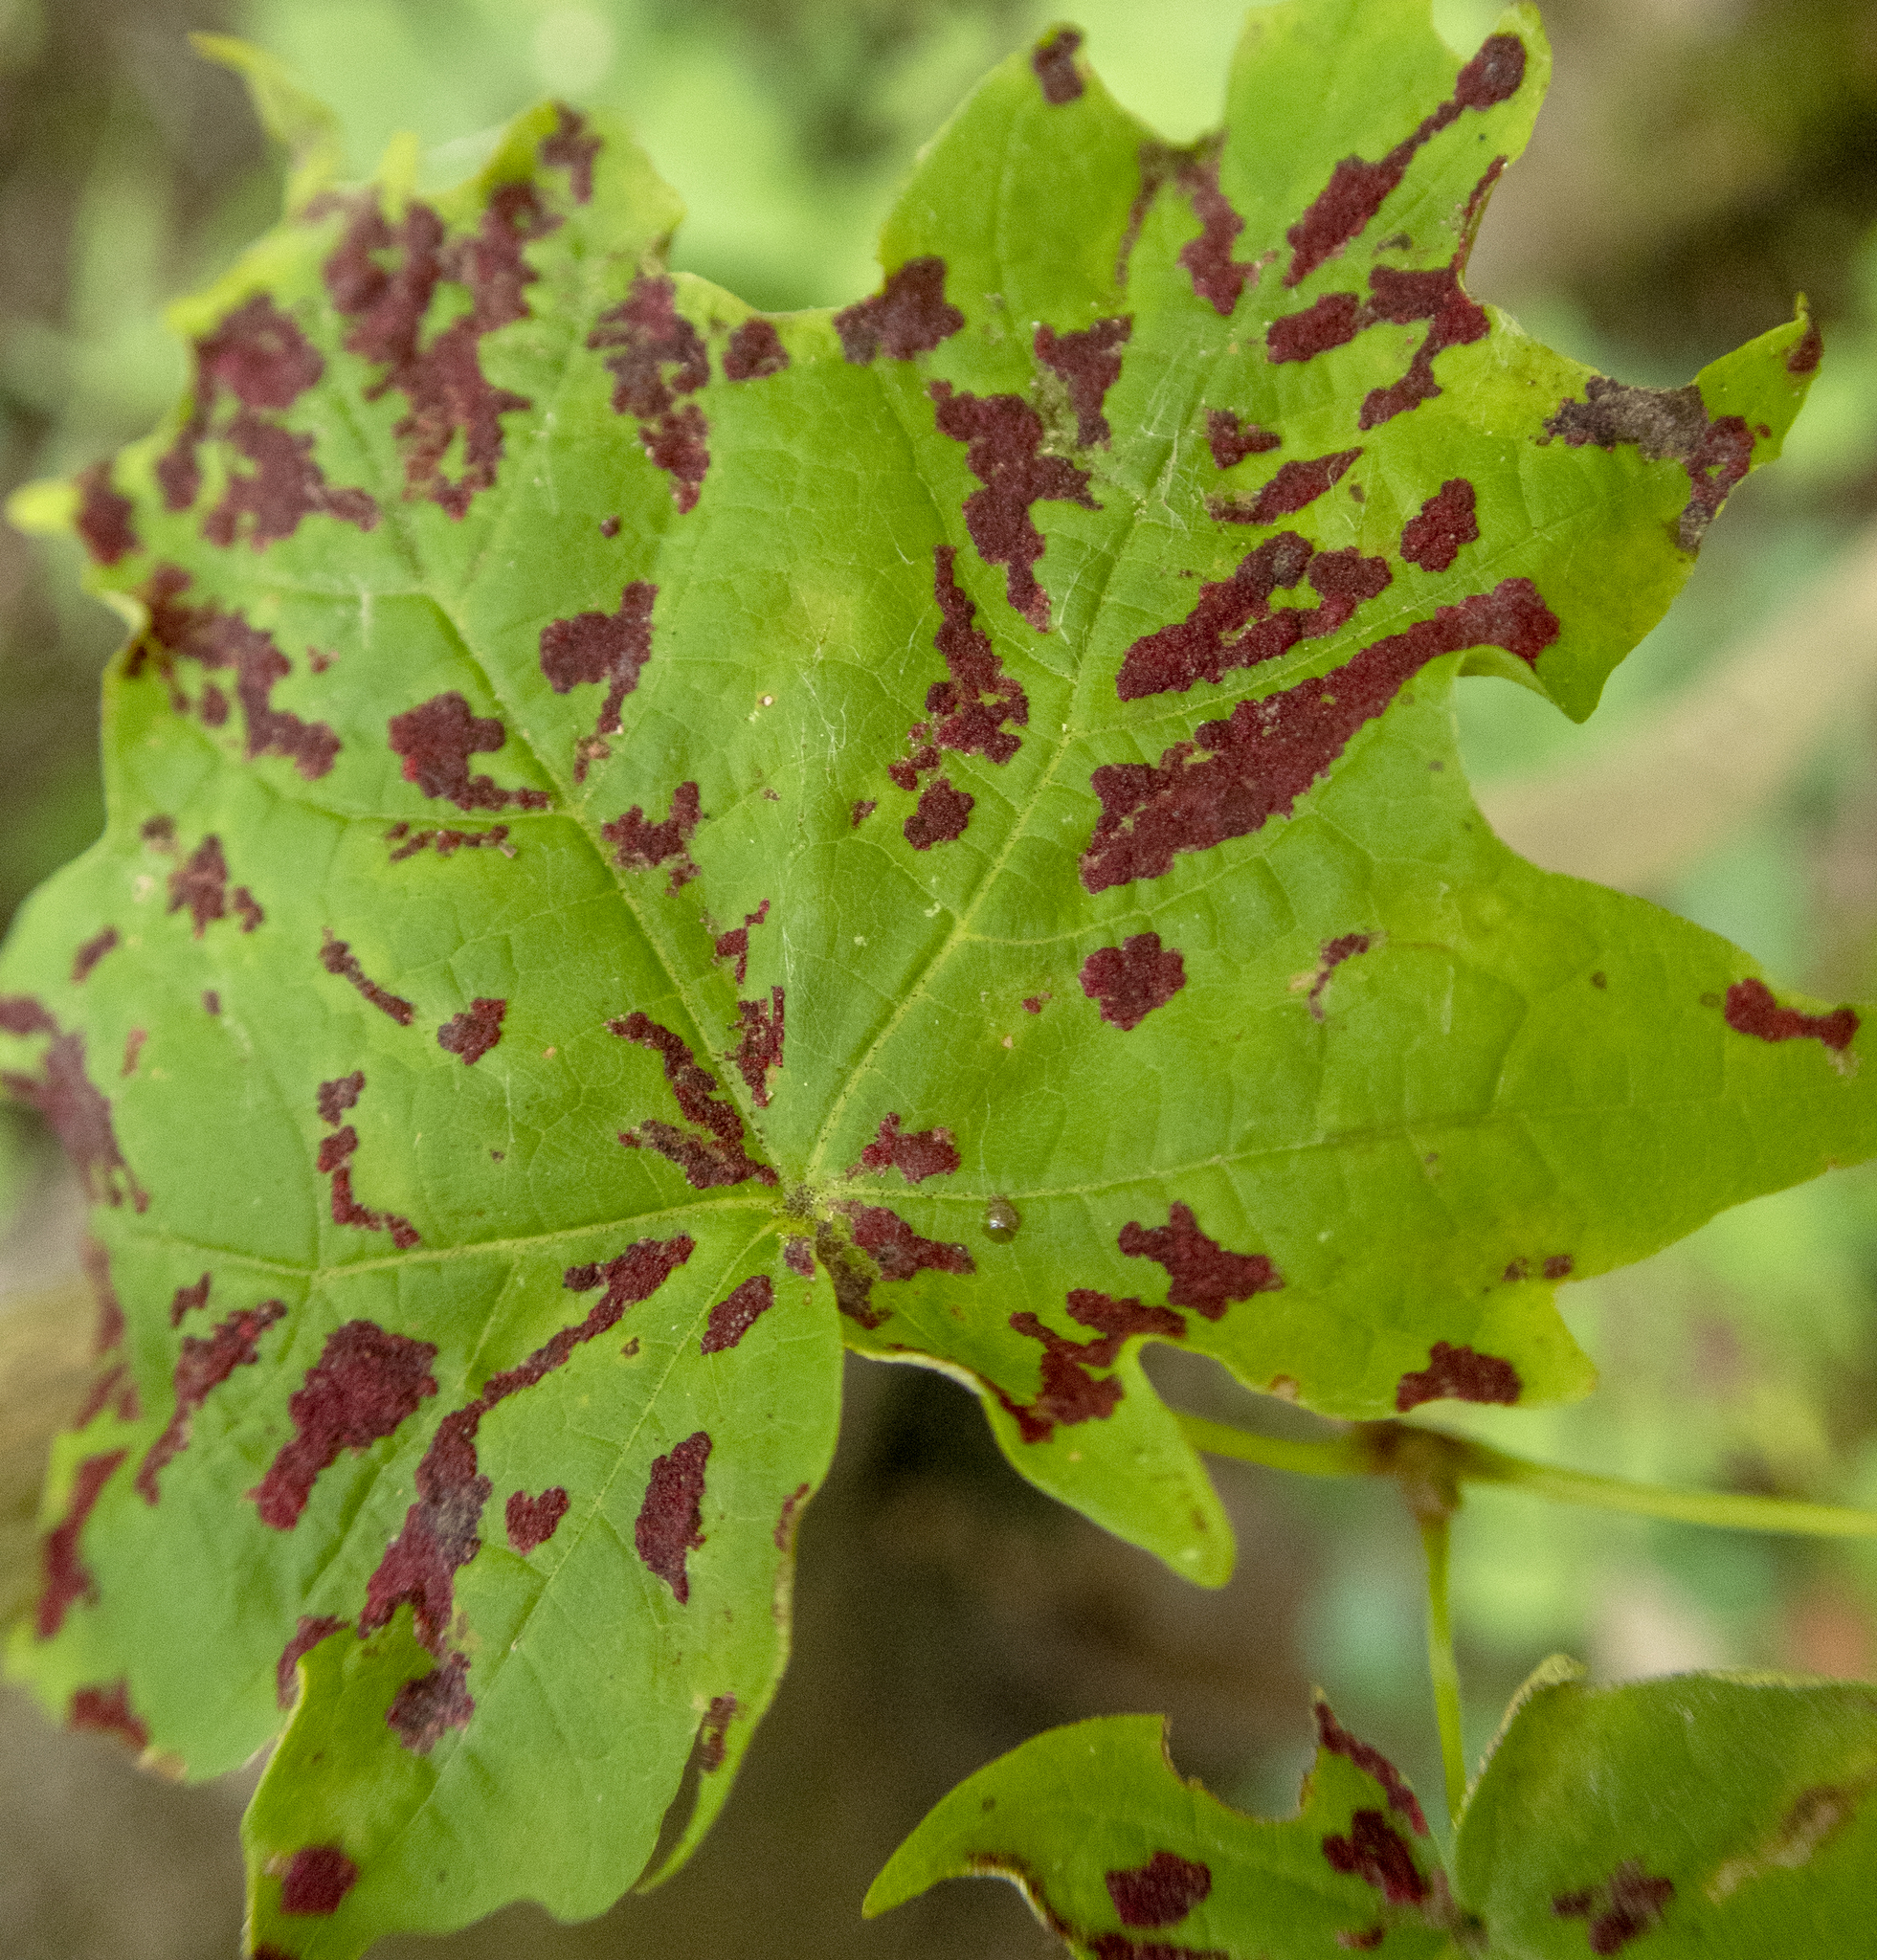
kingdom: Animalia
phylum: Arthropoda
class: Arachnida
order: Trombidiformes
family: Eriophyidae
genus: Aceria
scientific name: Aceria
